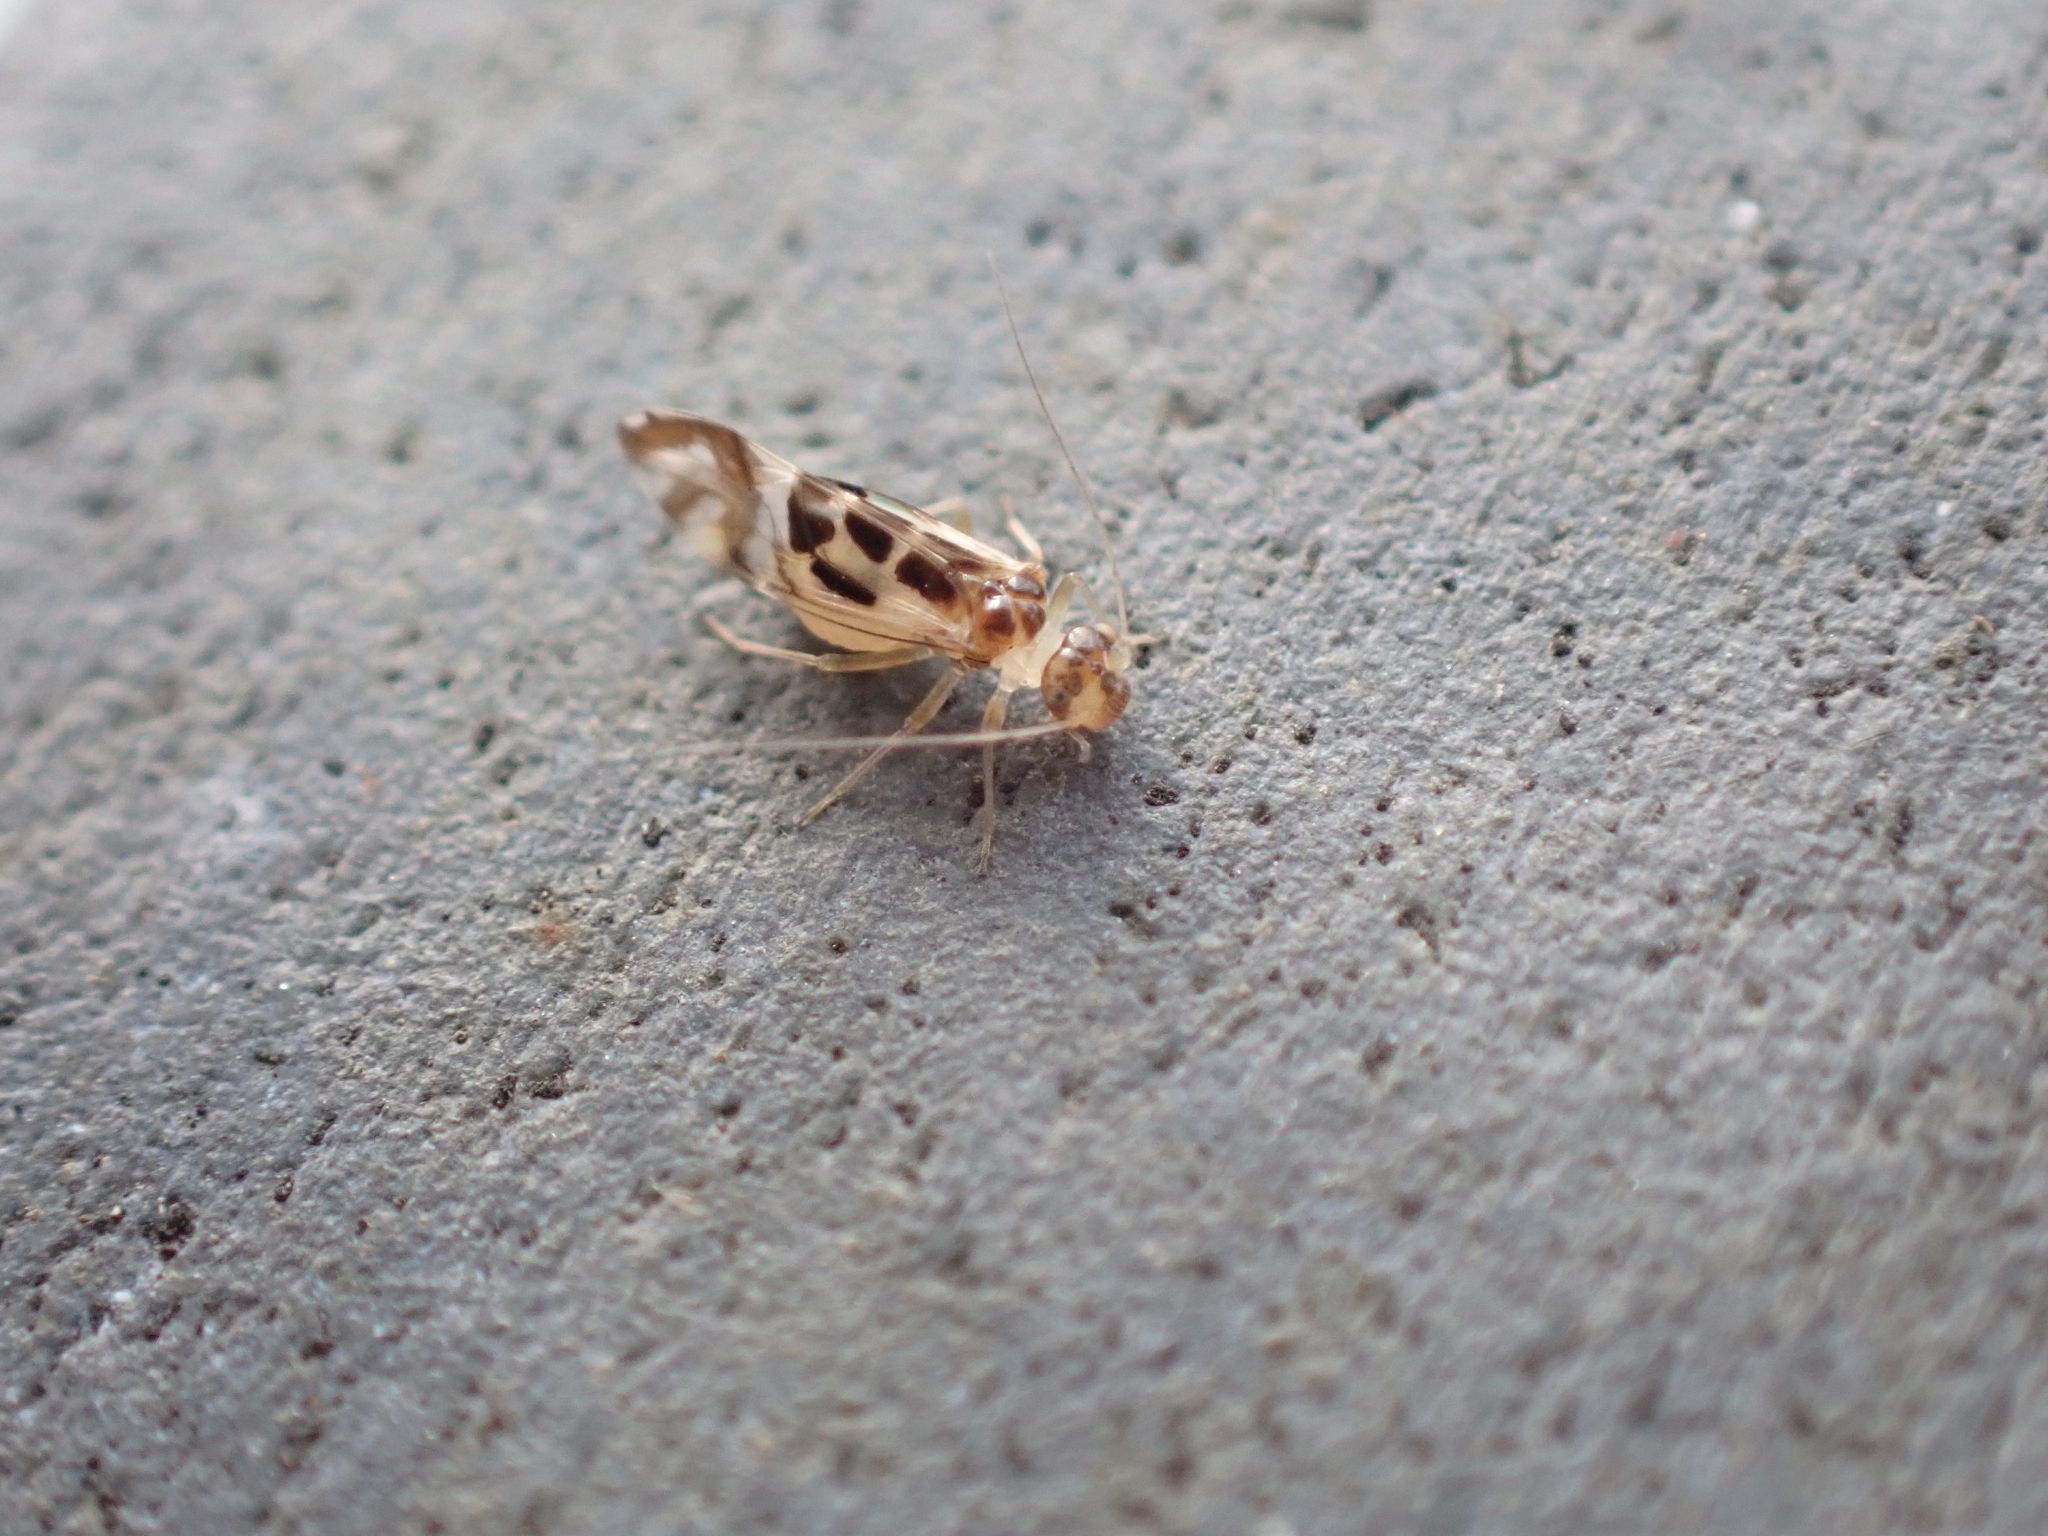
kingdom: Animalia
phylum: Arthropoda
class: Insecta
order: Psocodea
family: Stenopsocidae
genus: Graphopsocus
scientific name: Graphopsocus cruciatus
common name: Lizard bark louse
